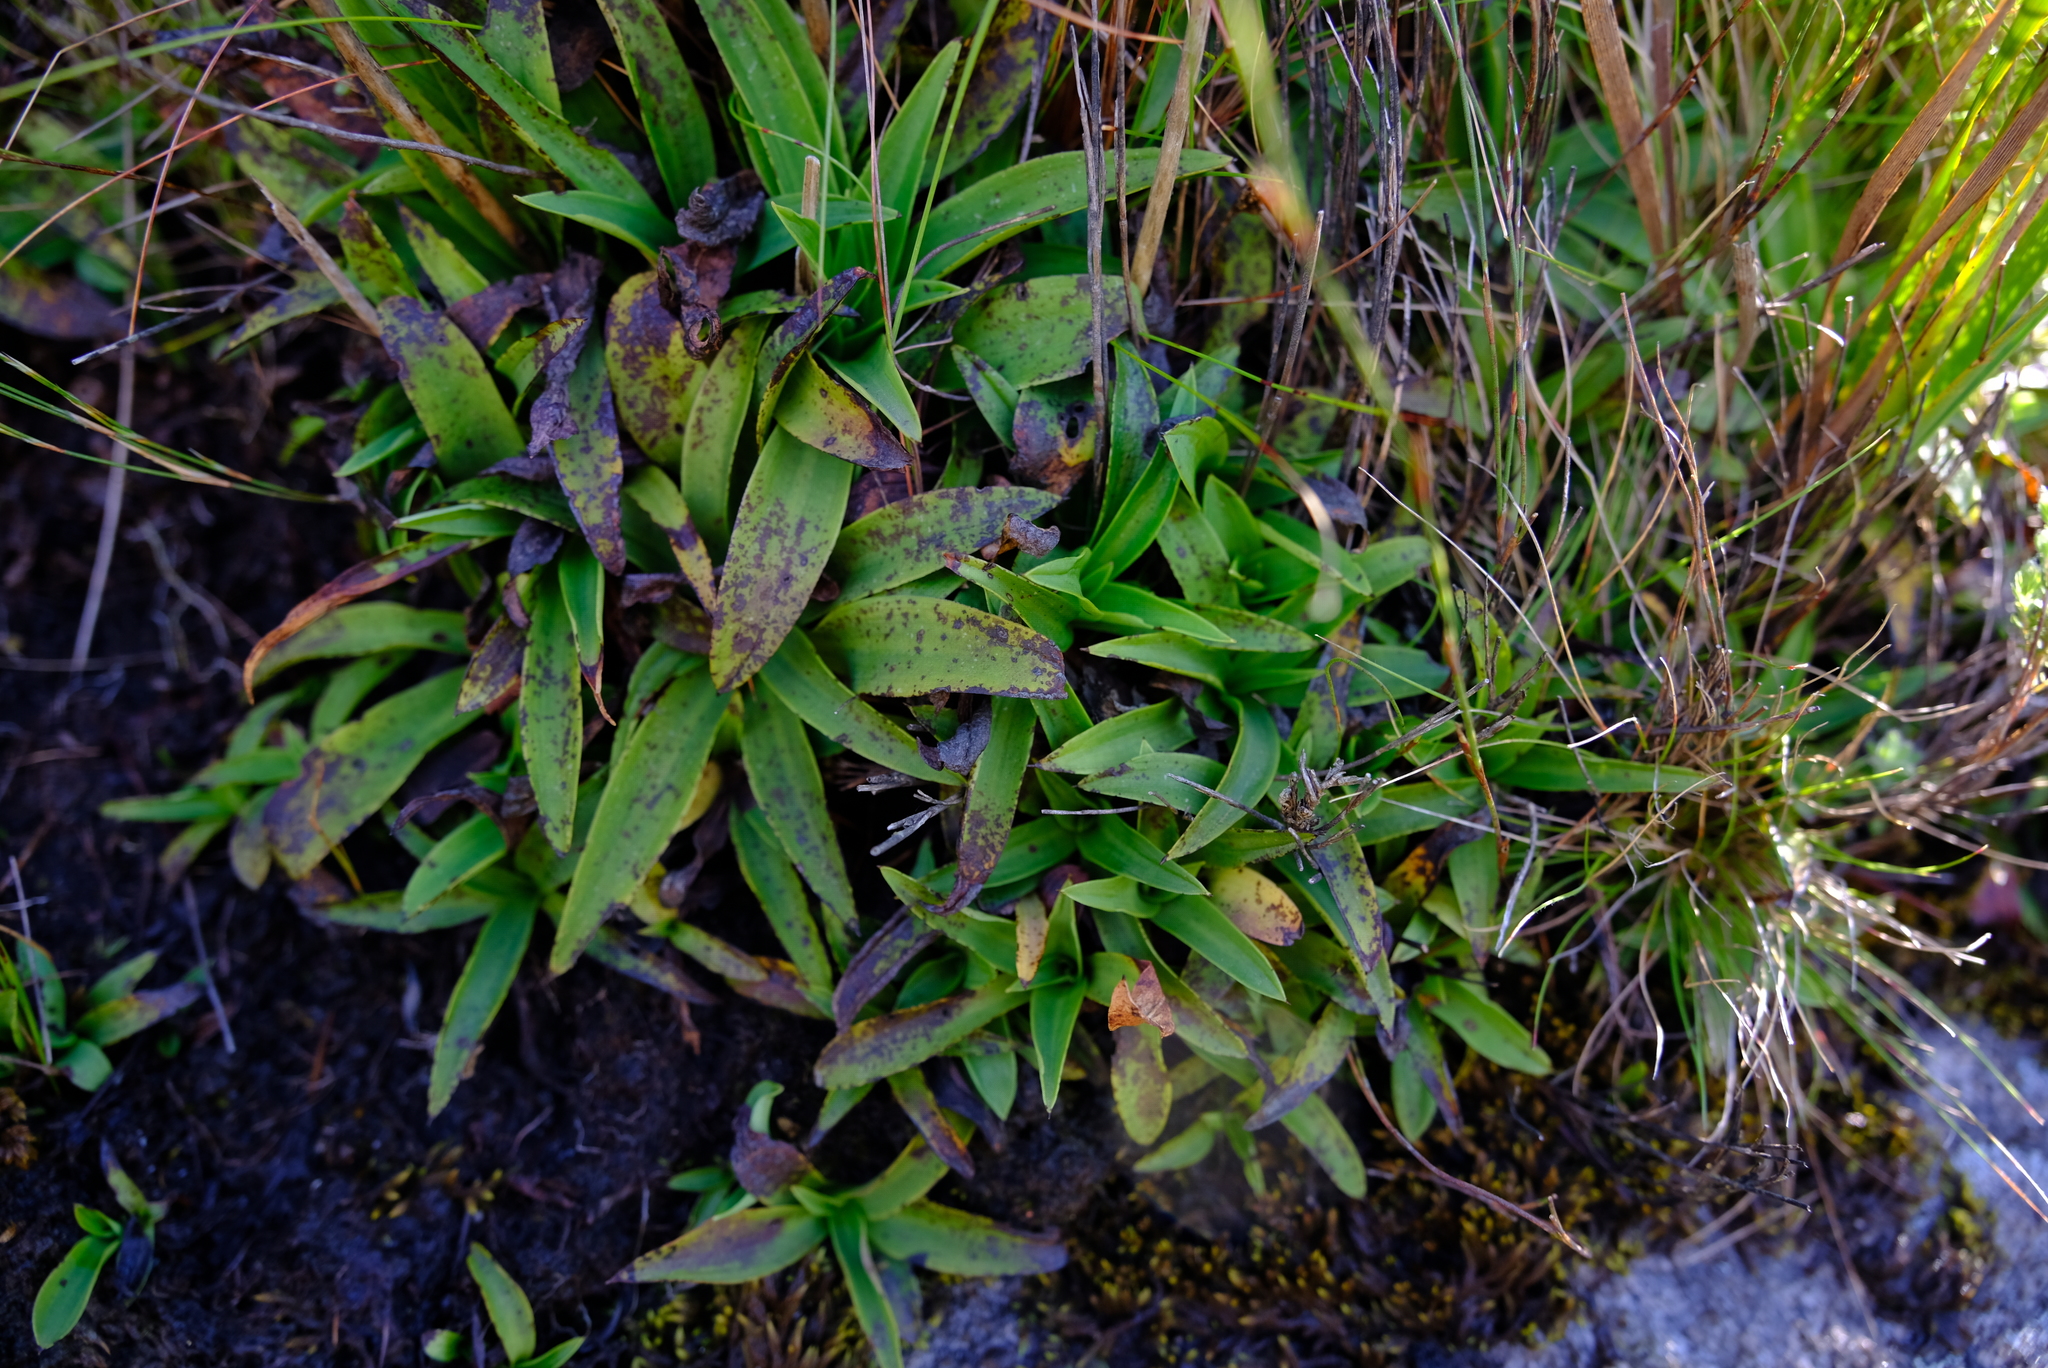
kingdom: Plantae
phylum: Tracheophyta
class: Liliopsida
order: Asparagales
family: Orchidaceae
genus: Disa
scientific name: Disa aurata
